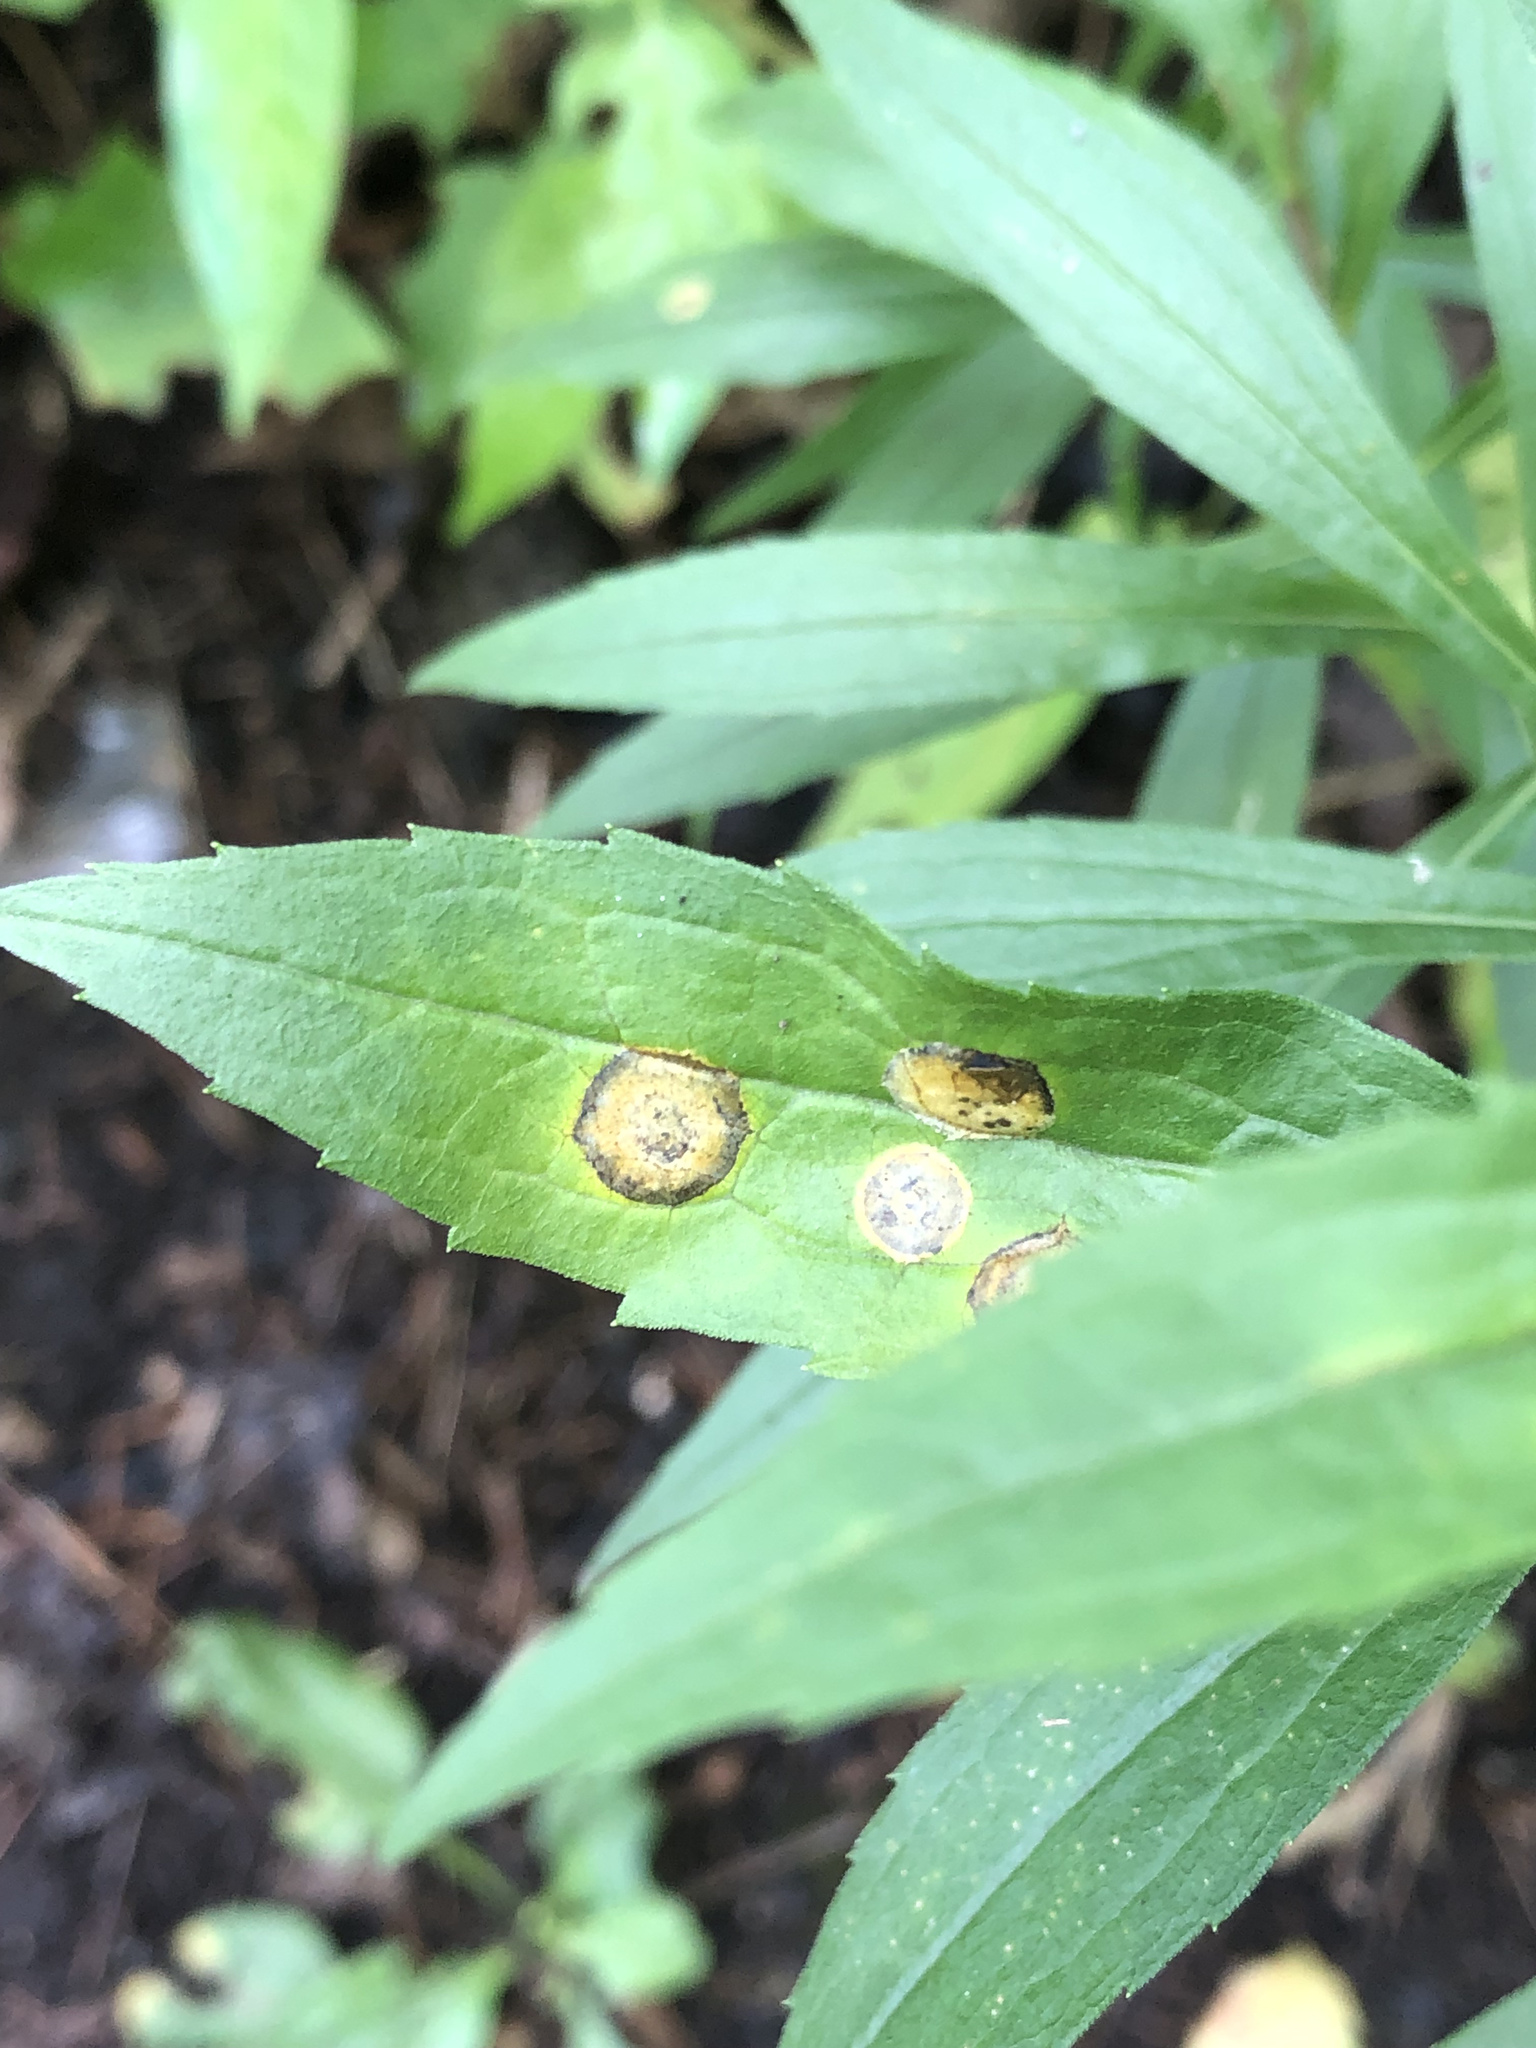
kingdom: Animalia
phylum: Arthropoda
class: Insecta
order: Diptera
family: Cecidomyiidae
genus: Asteromyia
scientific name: Asteromyia carbonifera
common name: Carbonifera goldenrod gall midge
